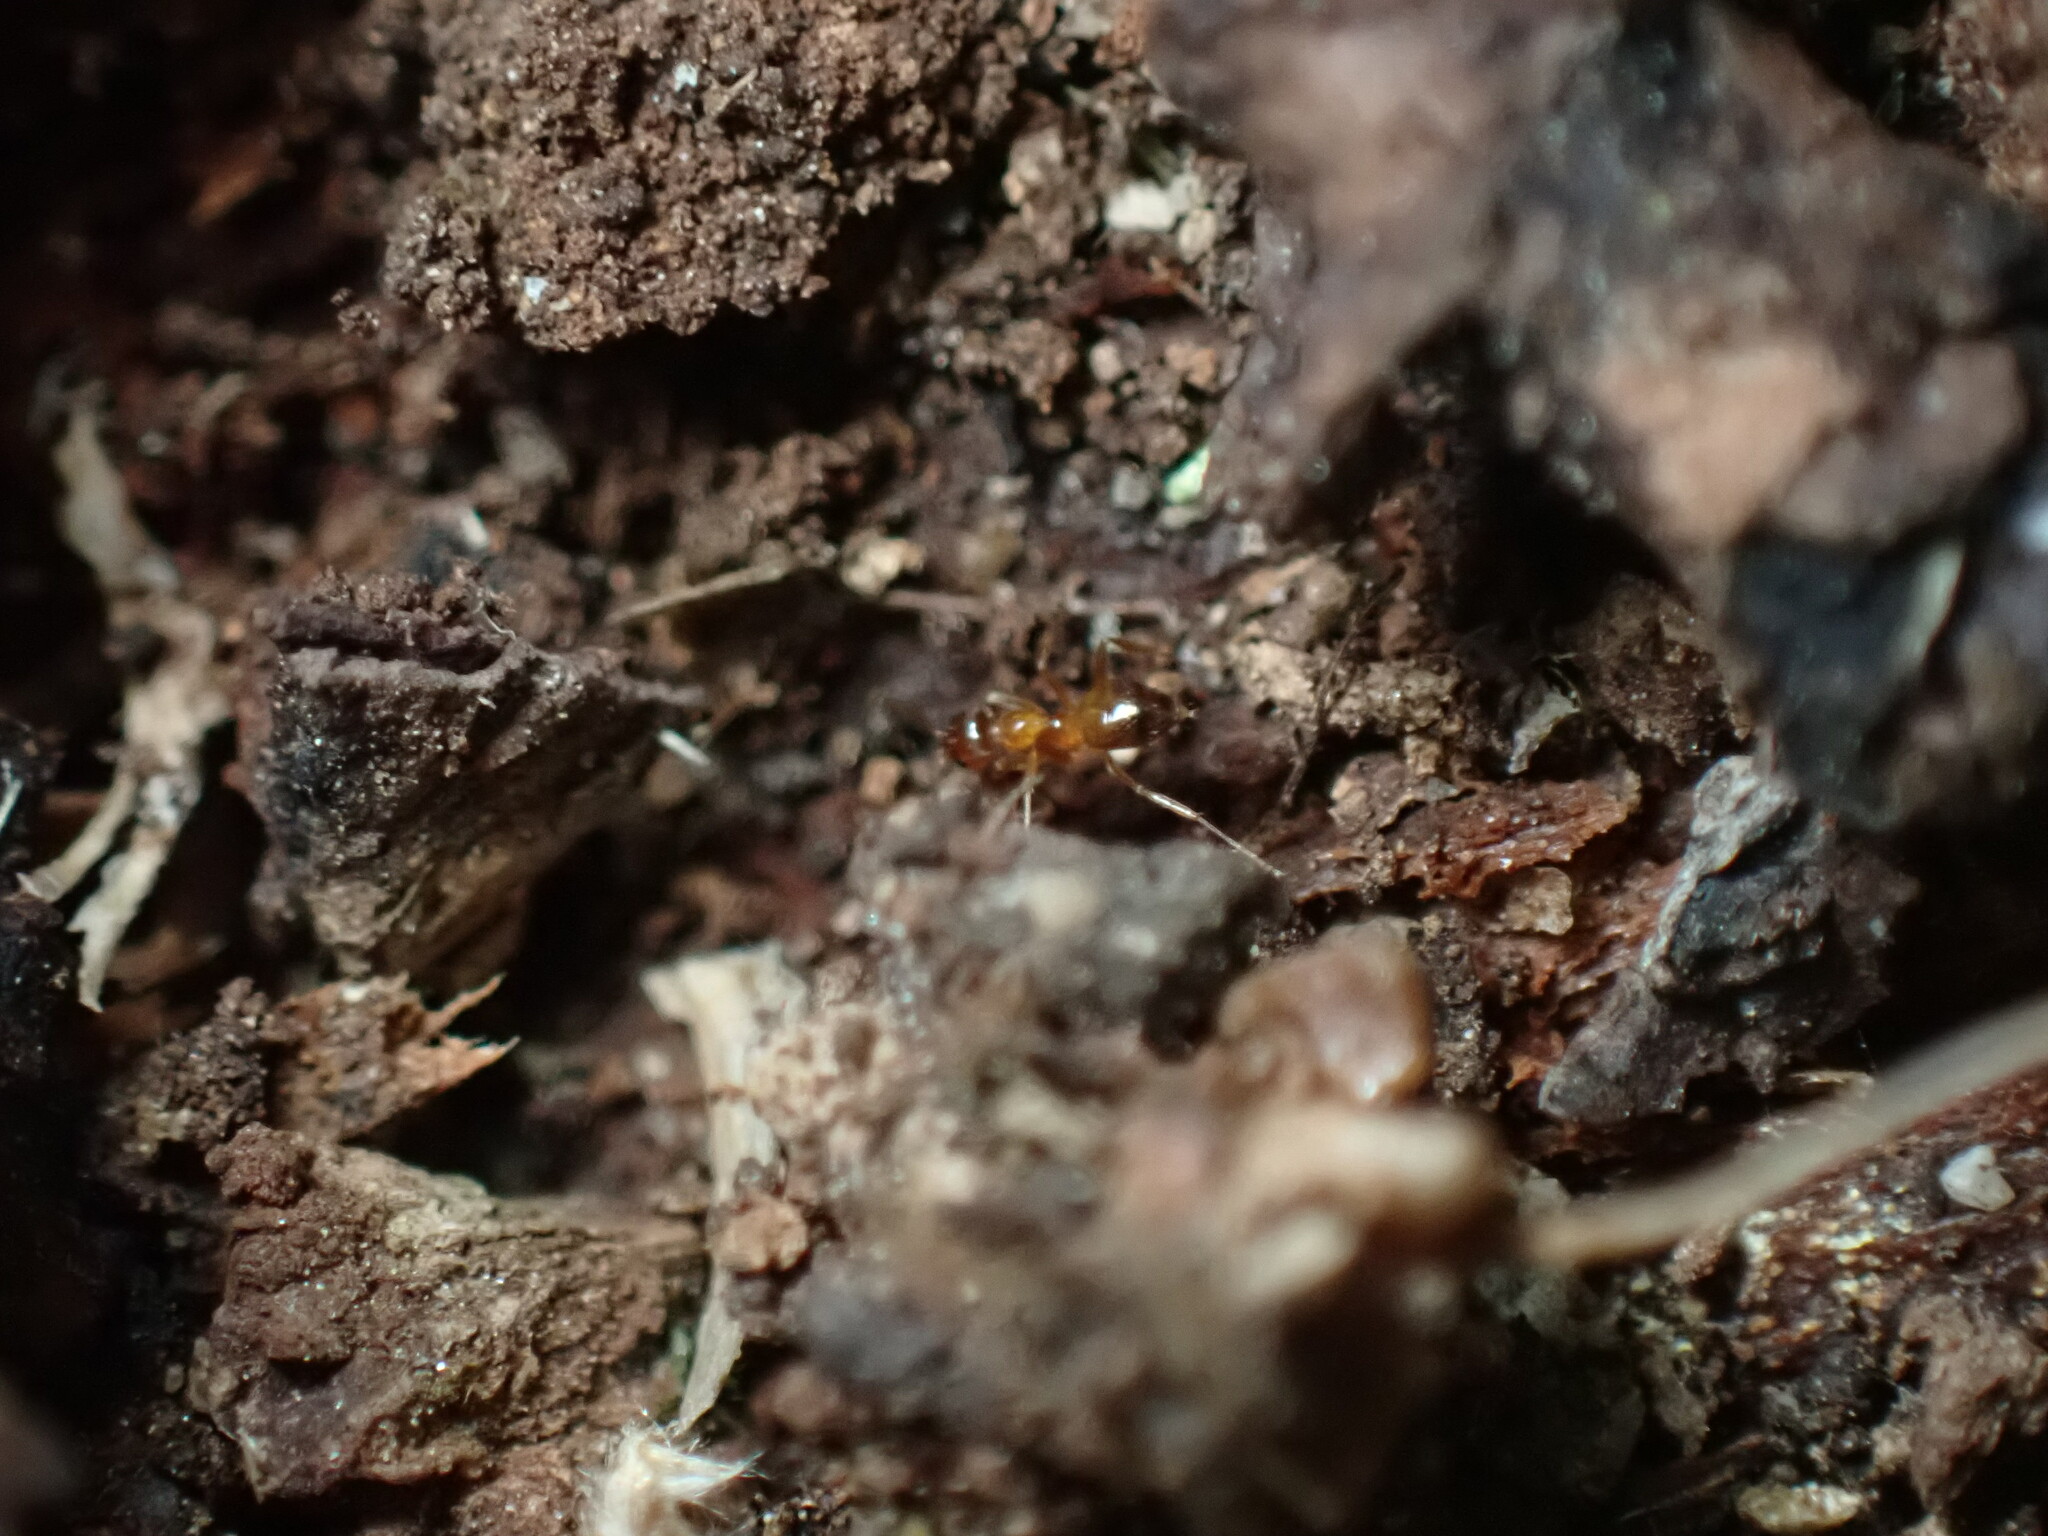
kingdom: Animalia
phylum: Arthropoda
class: Insecta
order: Hymenoptera
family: Formicidae
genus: Paratrechina
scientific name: Paratrechina flavipes
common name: Eastern asian formicine ant
